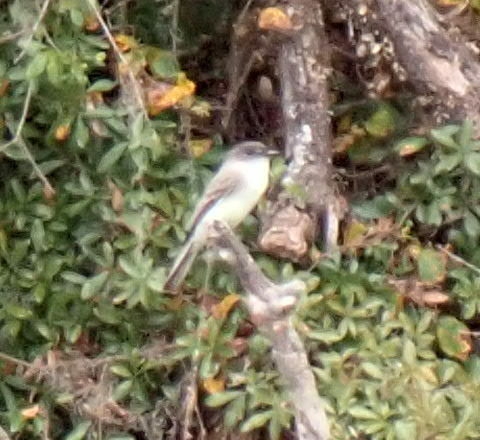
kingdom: Animalia
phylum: Chordata
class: Aves
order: Passeriformes
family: Tyrannidae
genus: Sayornis
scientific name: Sayornis phoebe
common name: Eastern phoebe
